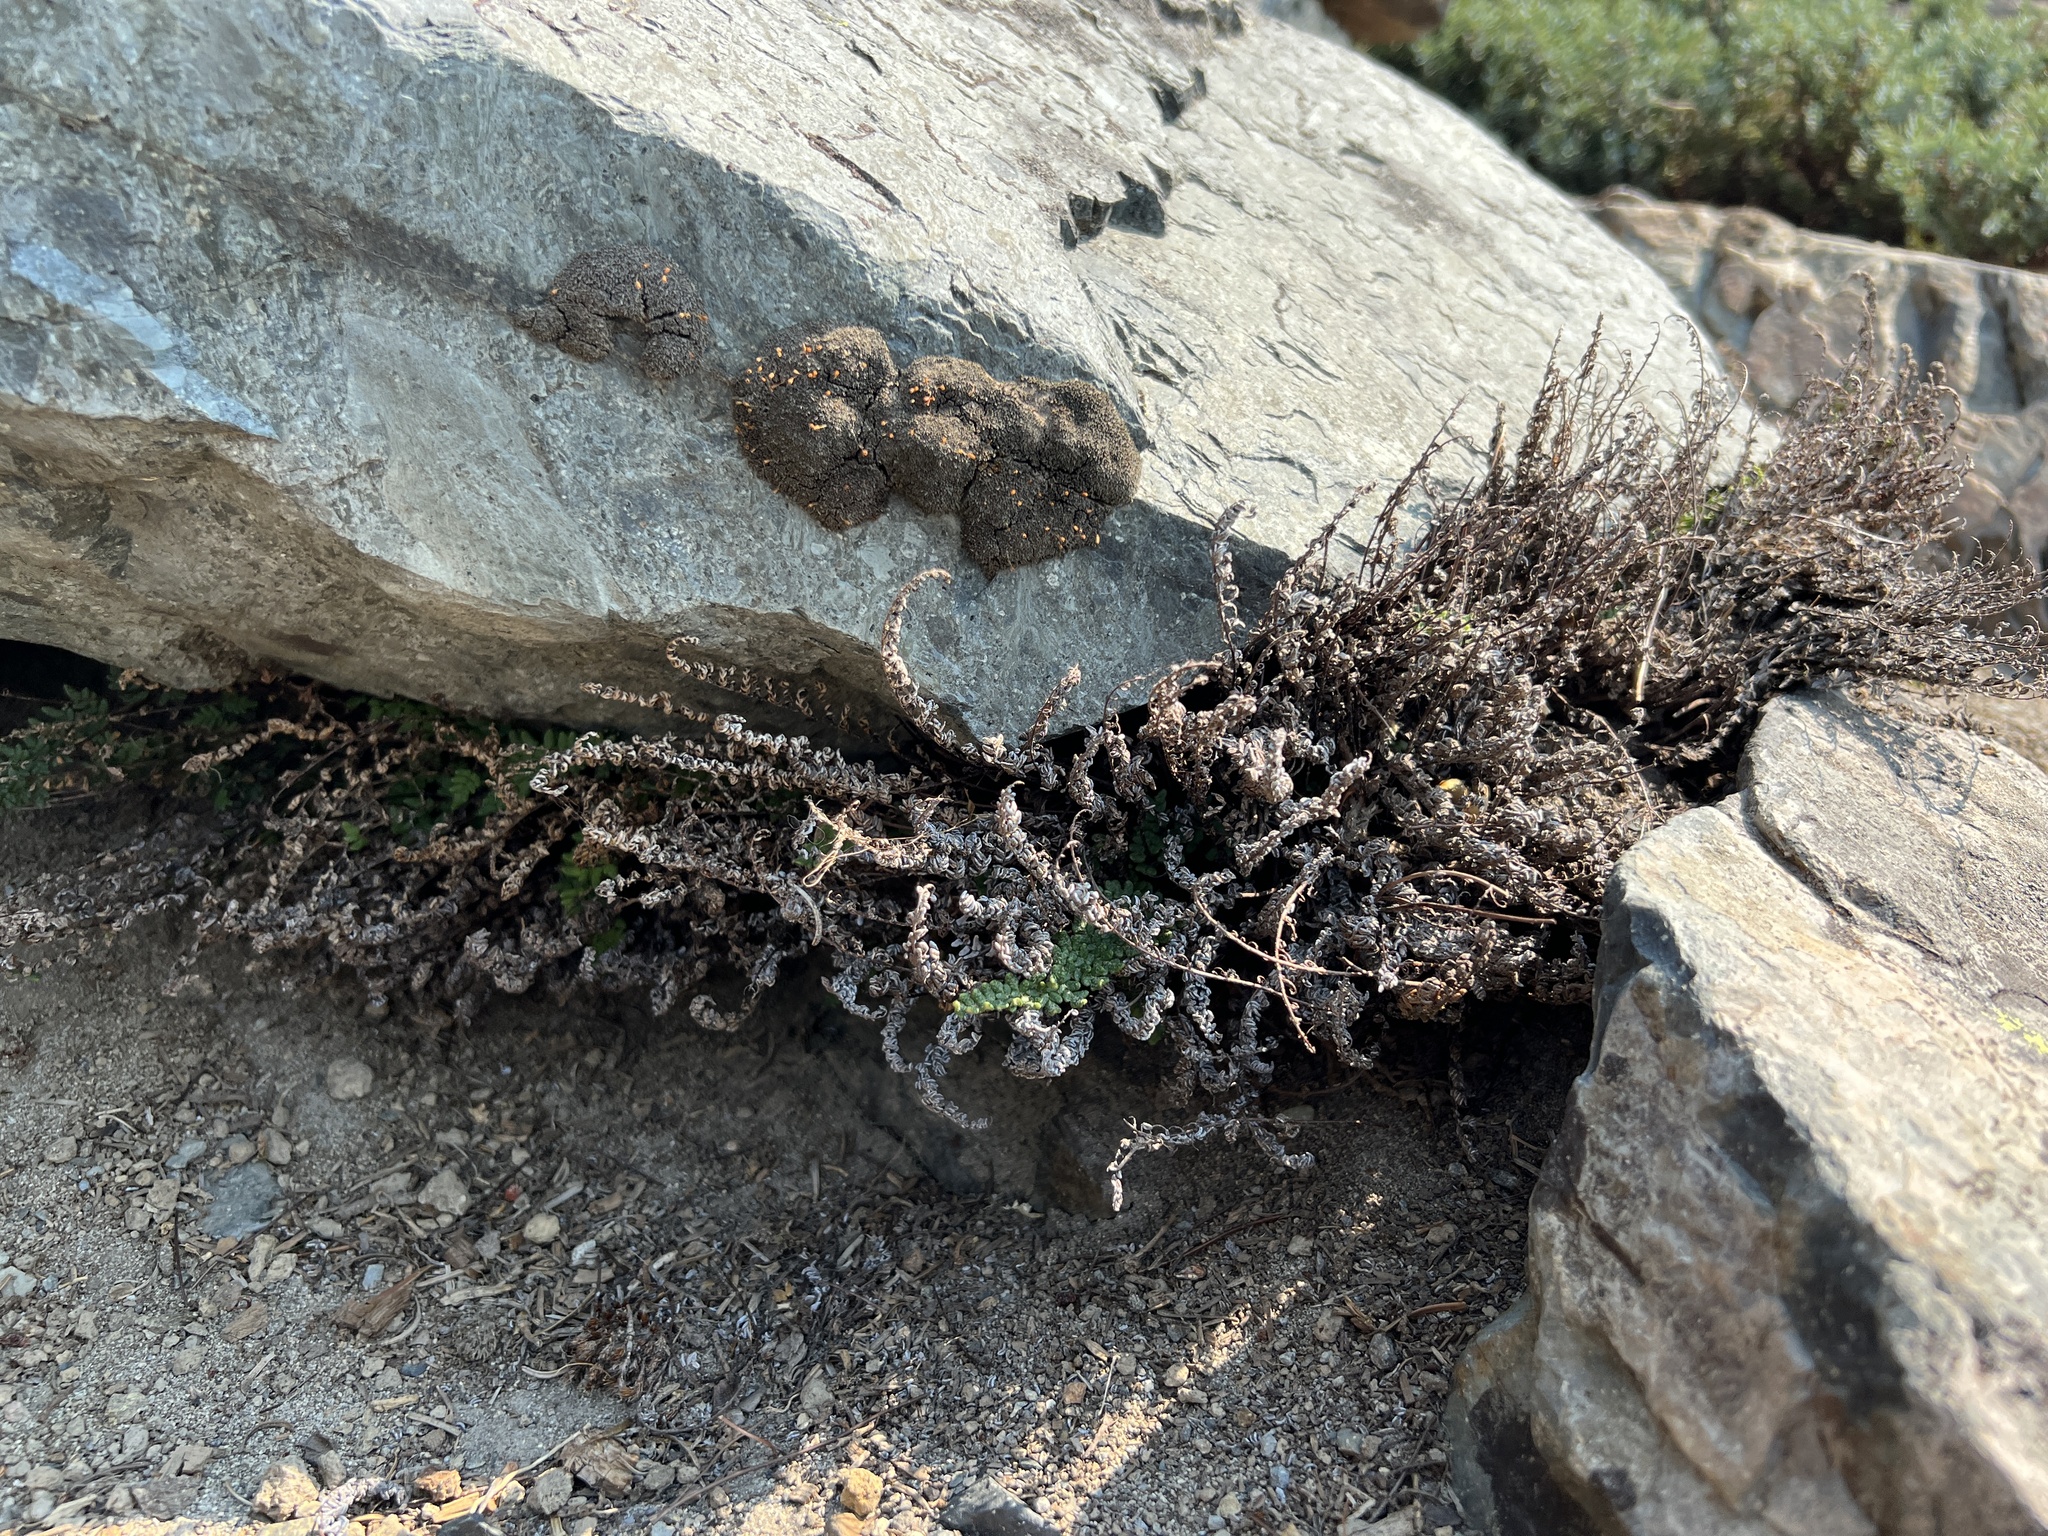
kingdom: Plantae
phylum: Tracheophyta
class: Polypodiopsida
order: Polypodiales
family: Pteridaceae
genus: Myriopteris
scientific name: Myriopteris gracillima
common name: Lace fern
